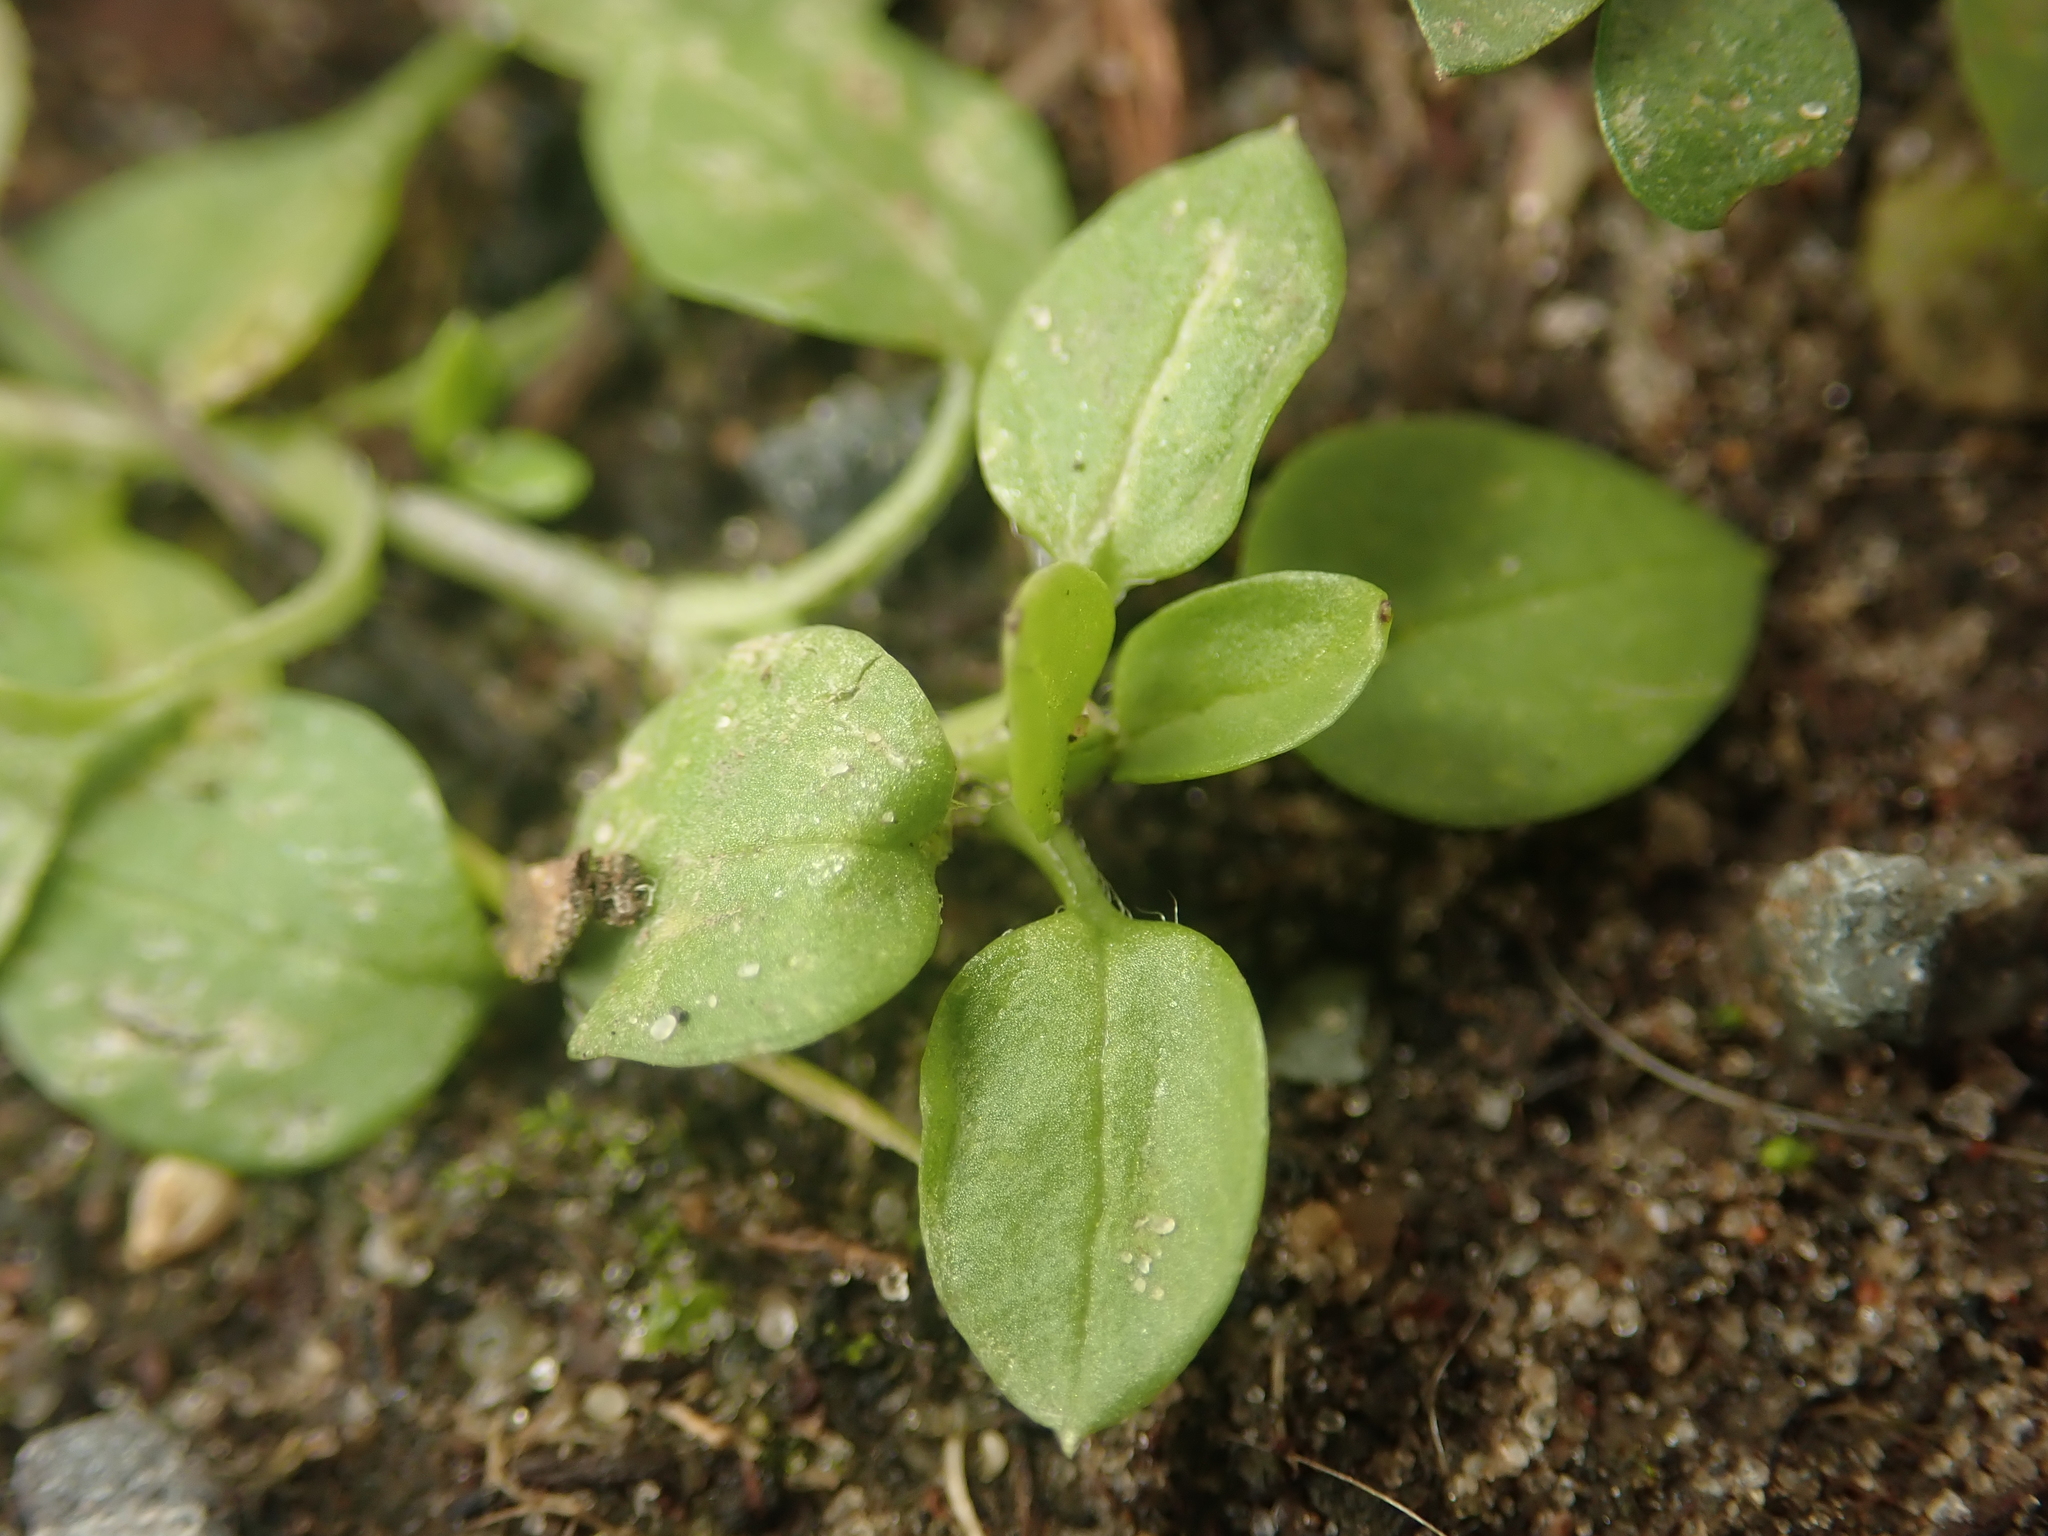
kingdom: Plantae
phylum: Tracheophyta
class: Magnoliopsida
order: Caryophyllales
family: Caryophyllaceae
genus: Stellaria
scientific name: Stellaria media
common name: Common chickweed
